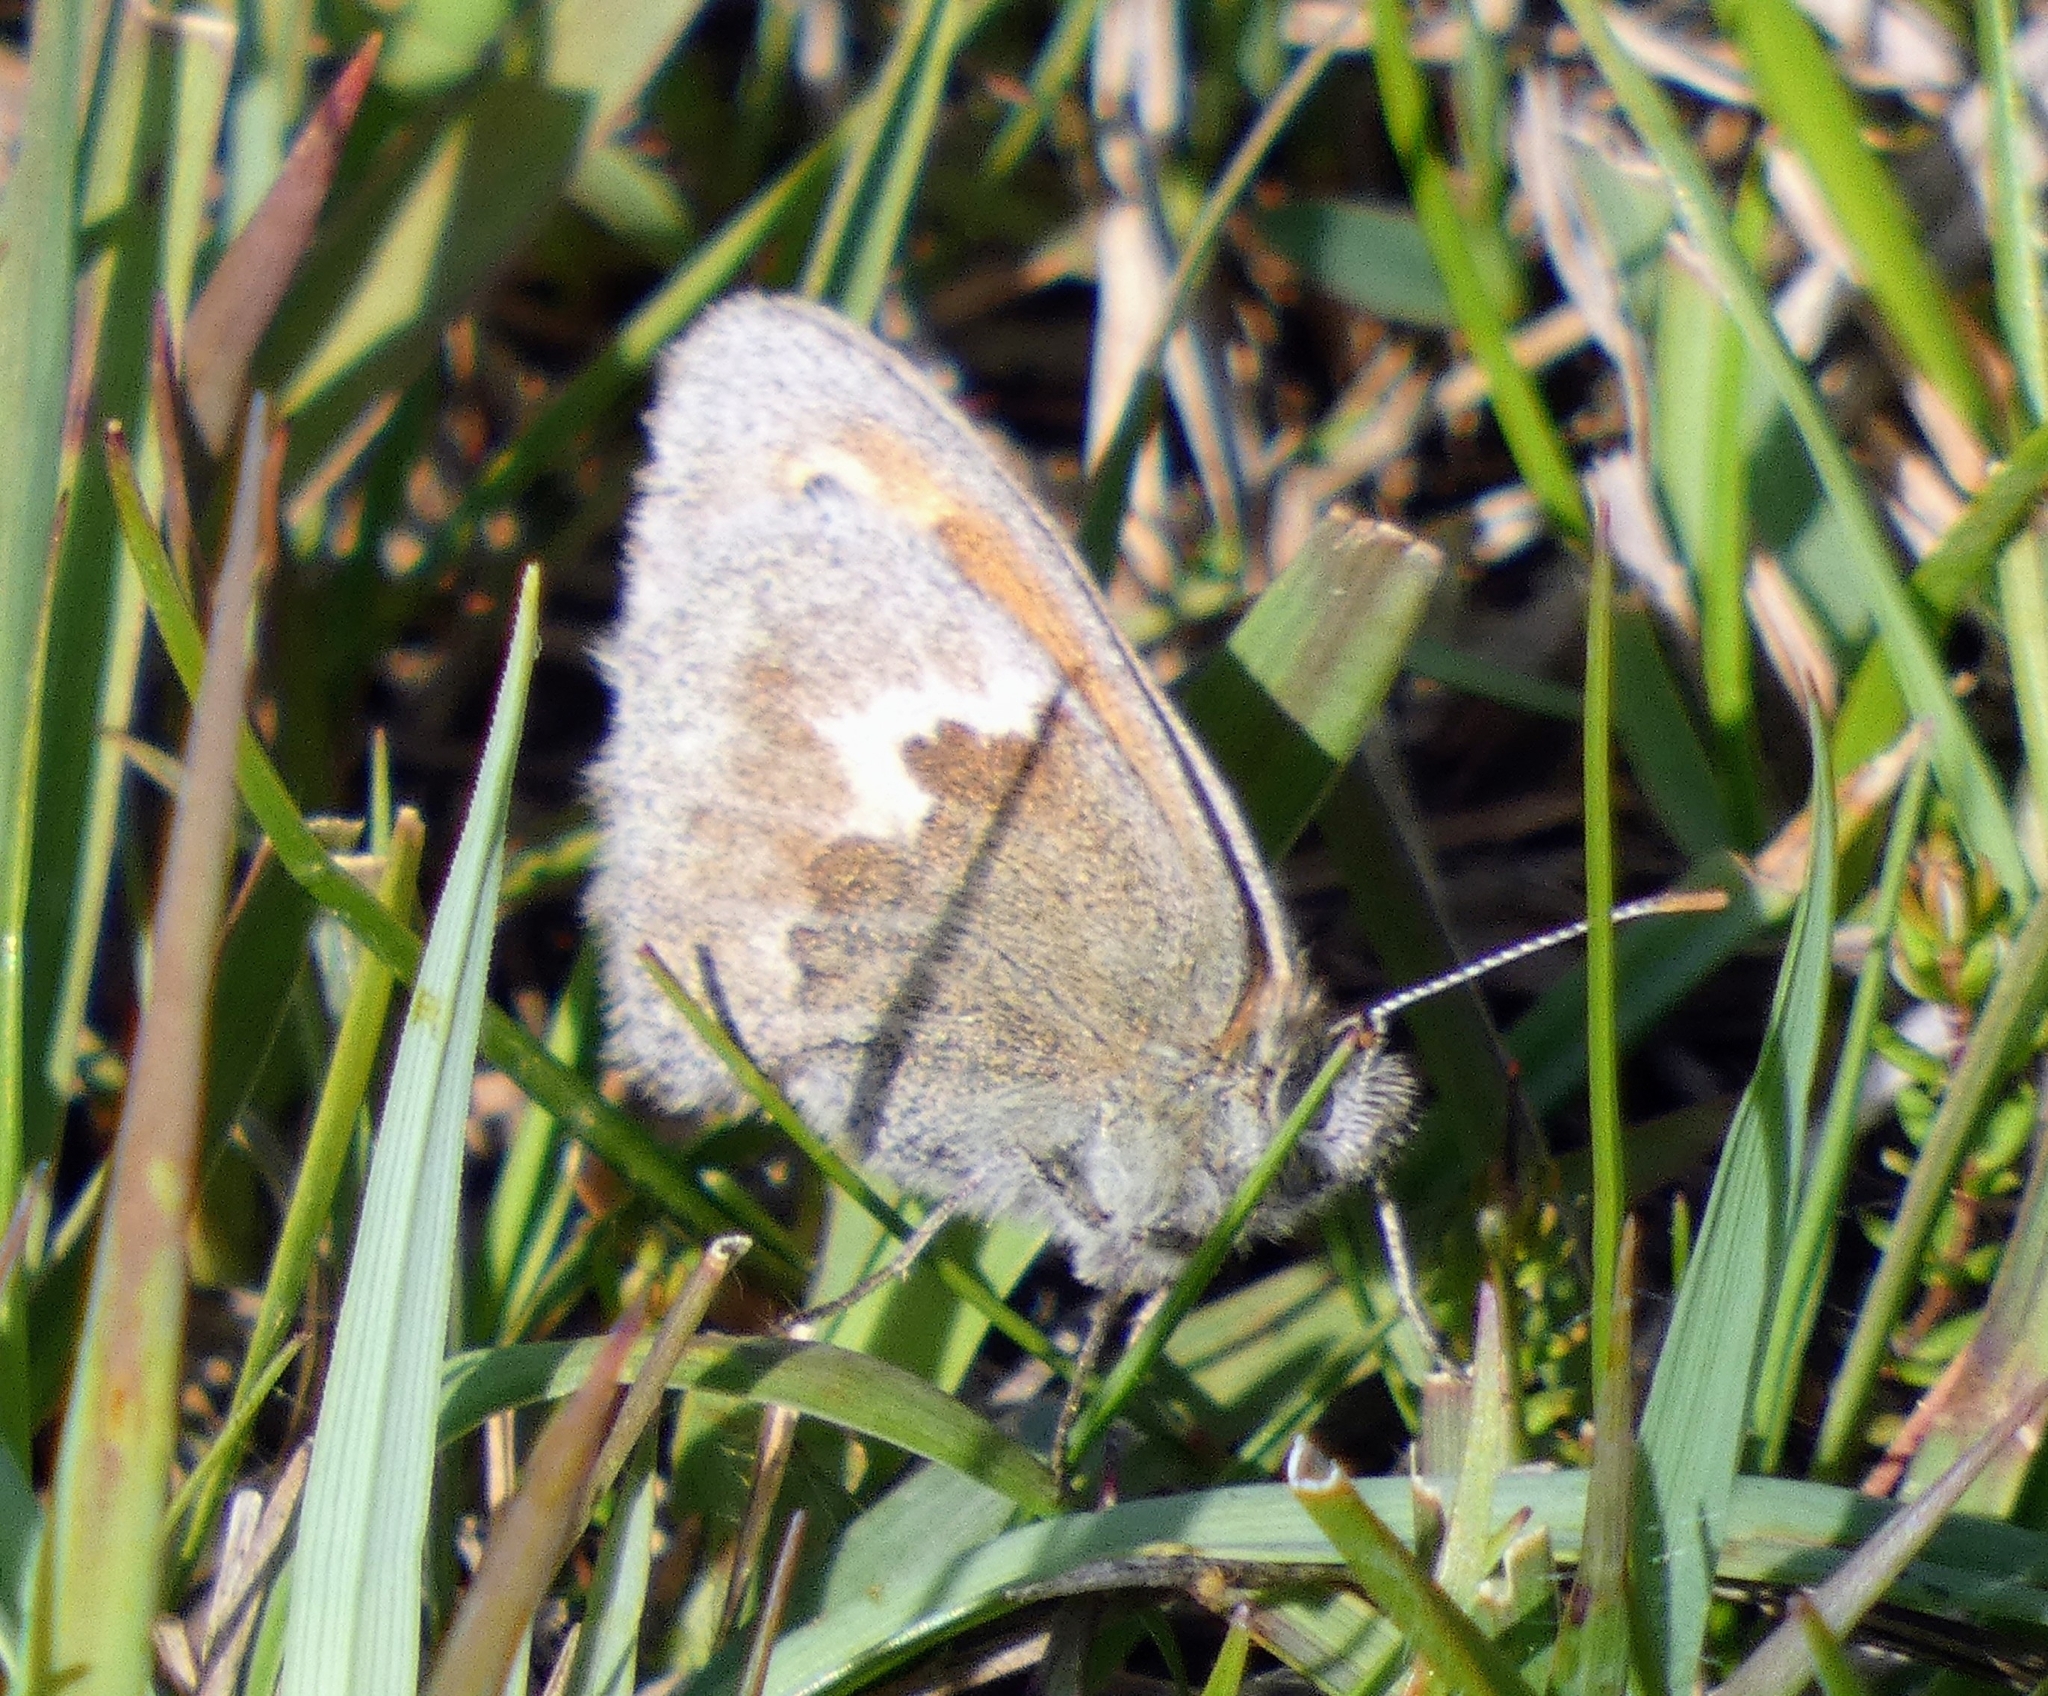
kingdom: Animalia
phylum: Arthropoda
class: Insecta
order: Lepidoptera
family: Nymphalidae
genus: Coenonympha
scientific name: Coenonympha pamphilus
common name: Small heath
